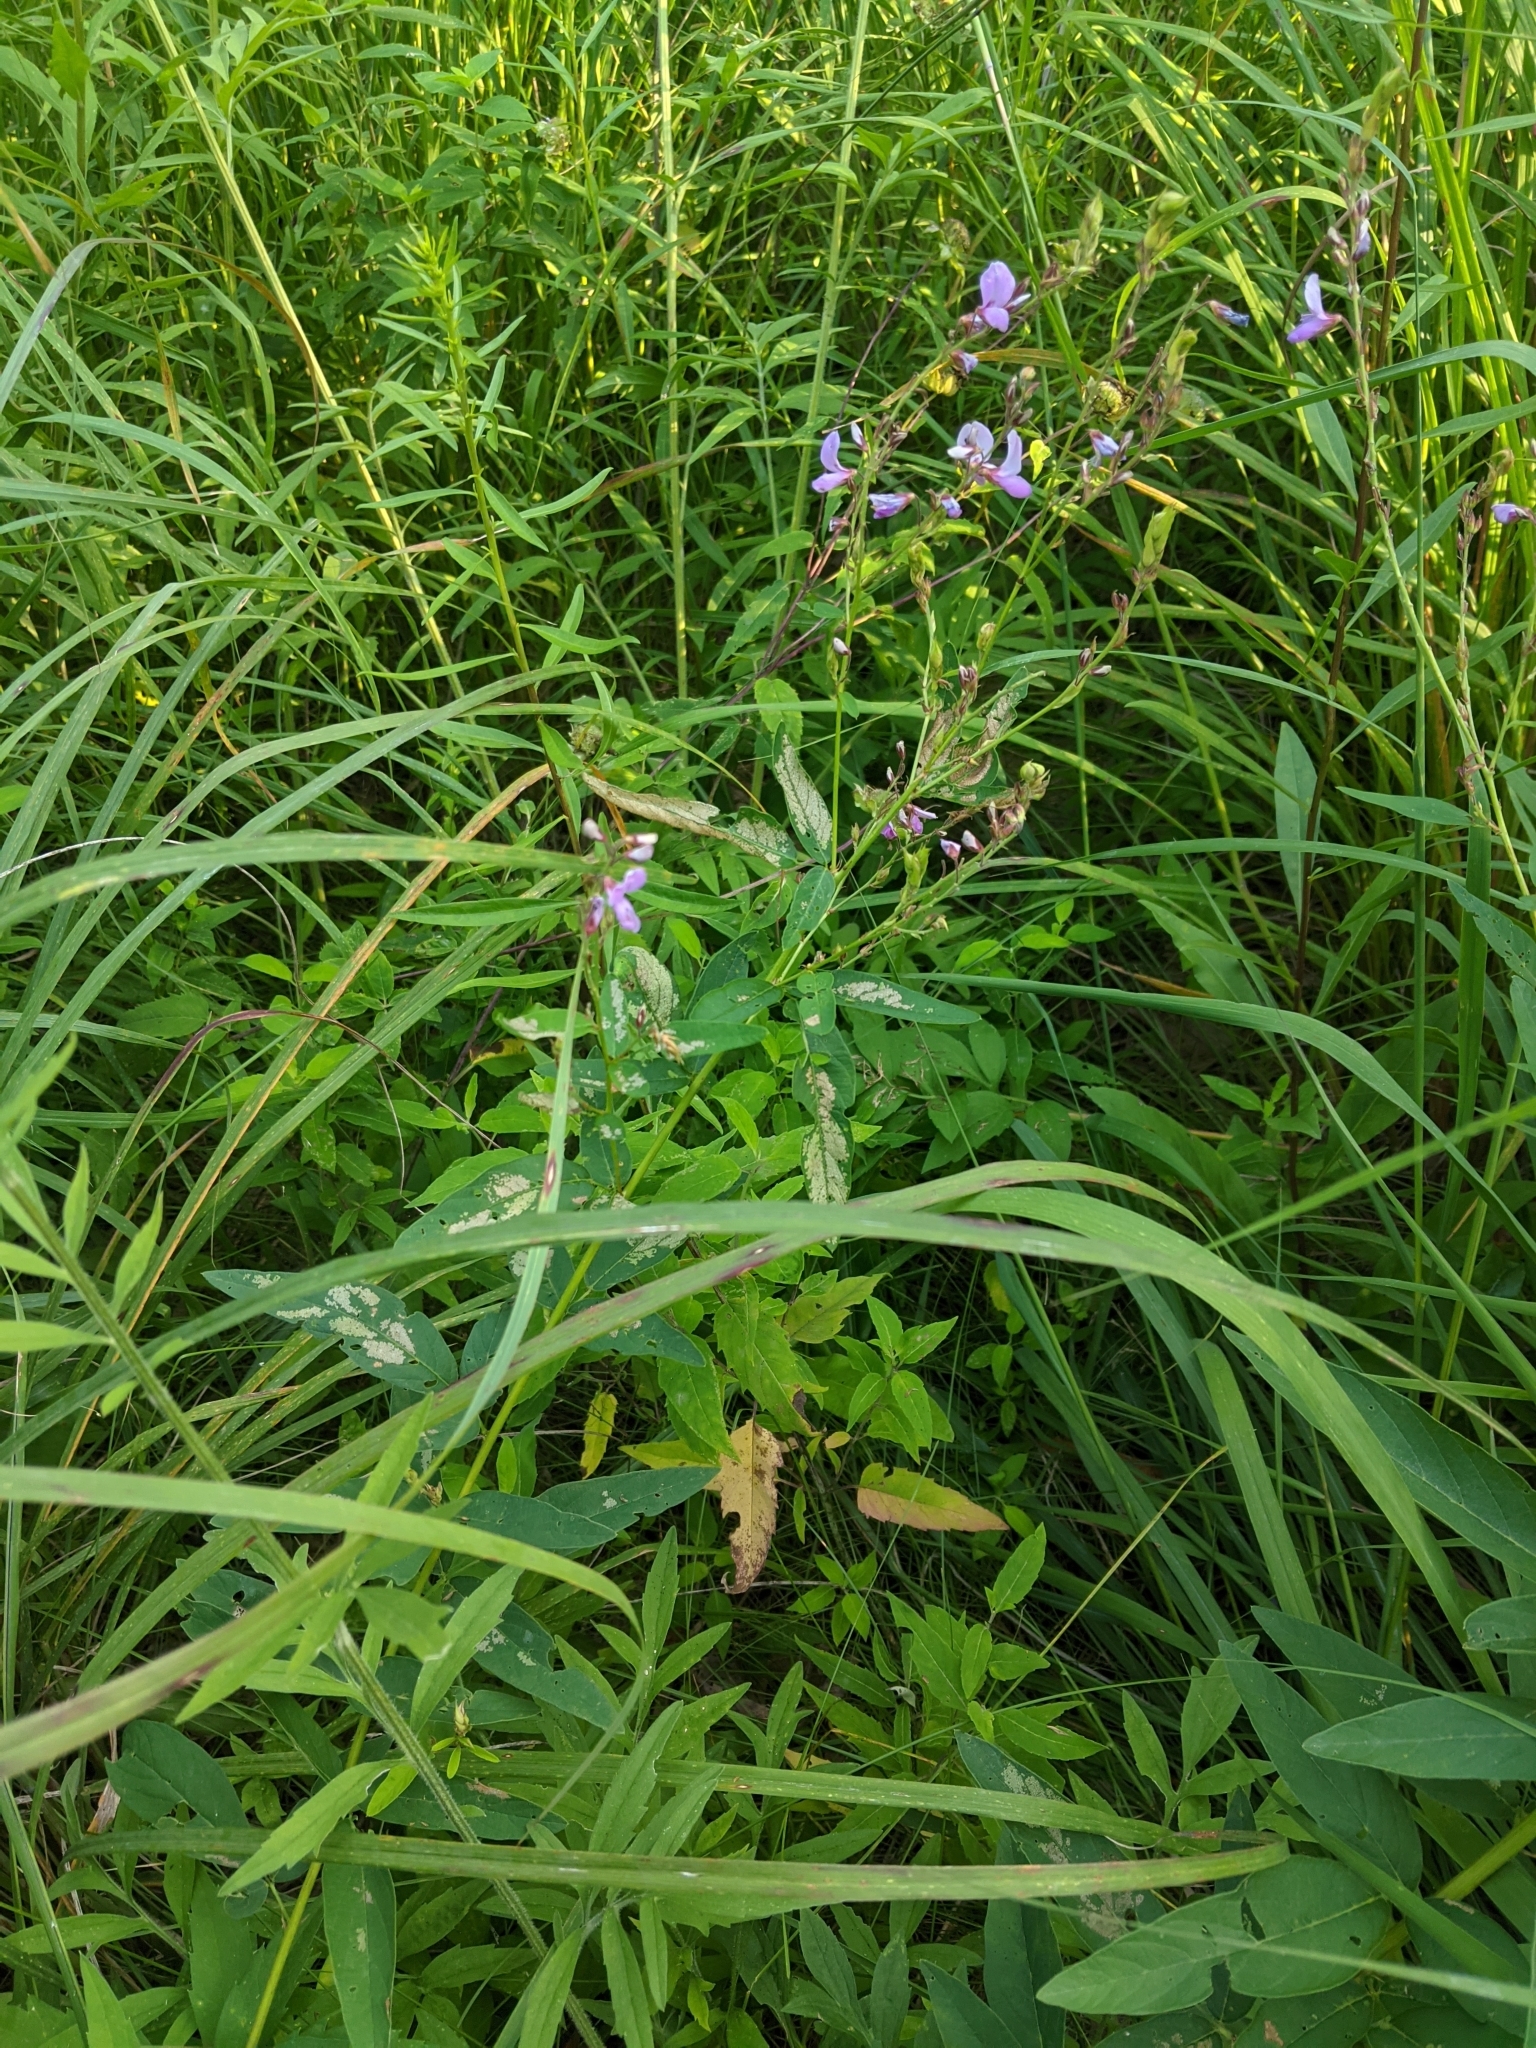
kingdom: Plantae
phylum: Tracheophyta
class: Magnoliopsida
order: Fabales
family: Fabaceae
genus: Desmodium
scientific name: Desmodium canadense
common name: Canada tick-trefoil
